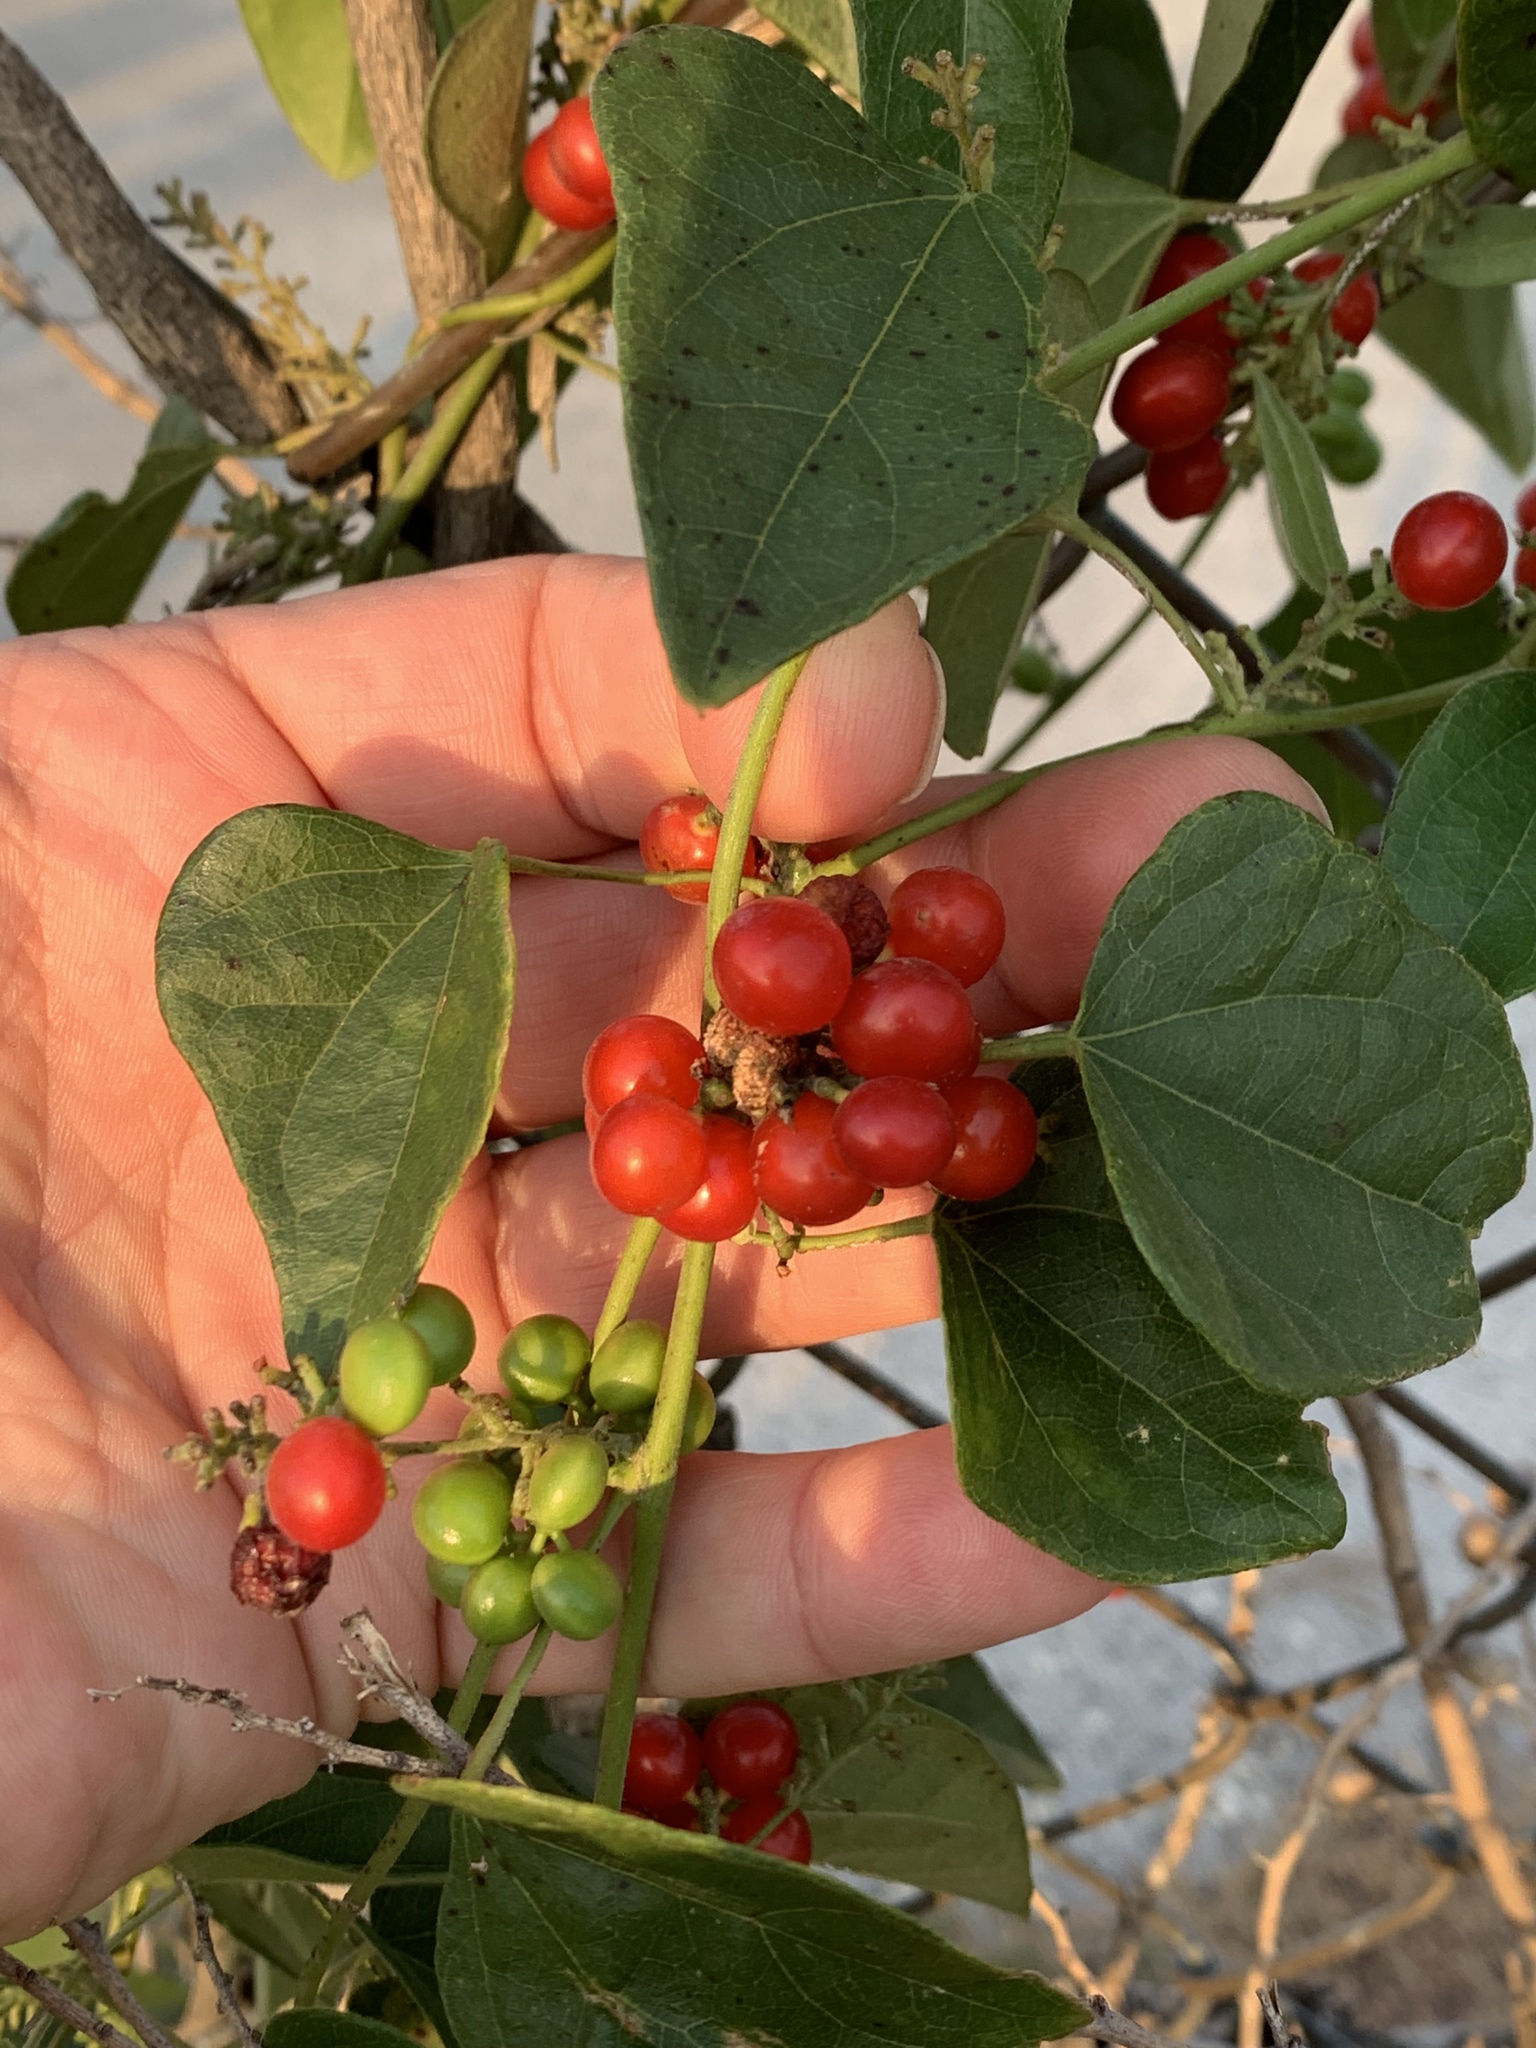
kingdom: Plantae
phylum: Tracheophyta
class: Magnoliopsida
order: Ranunculales
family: Menispermaceae
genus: Cocculus
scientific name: Cocculus carolinus
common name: Carolina moonseed
